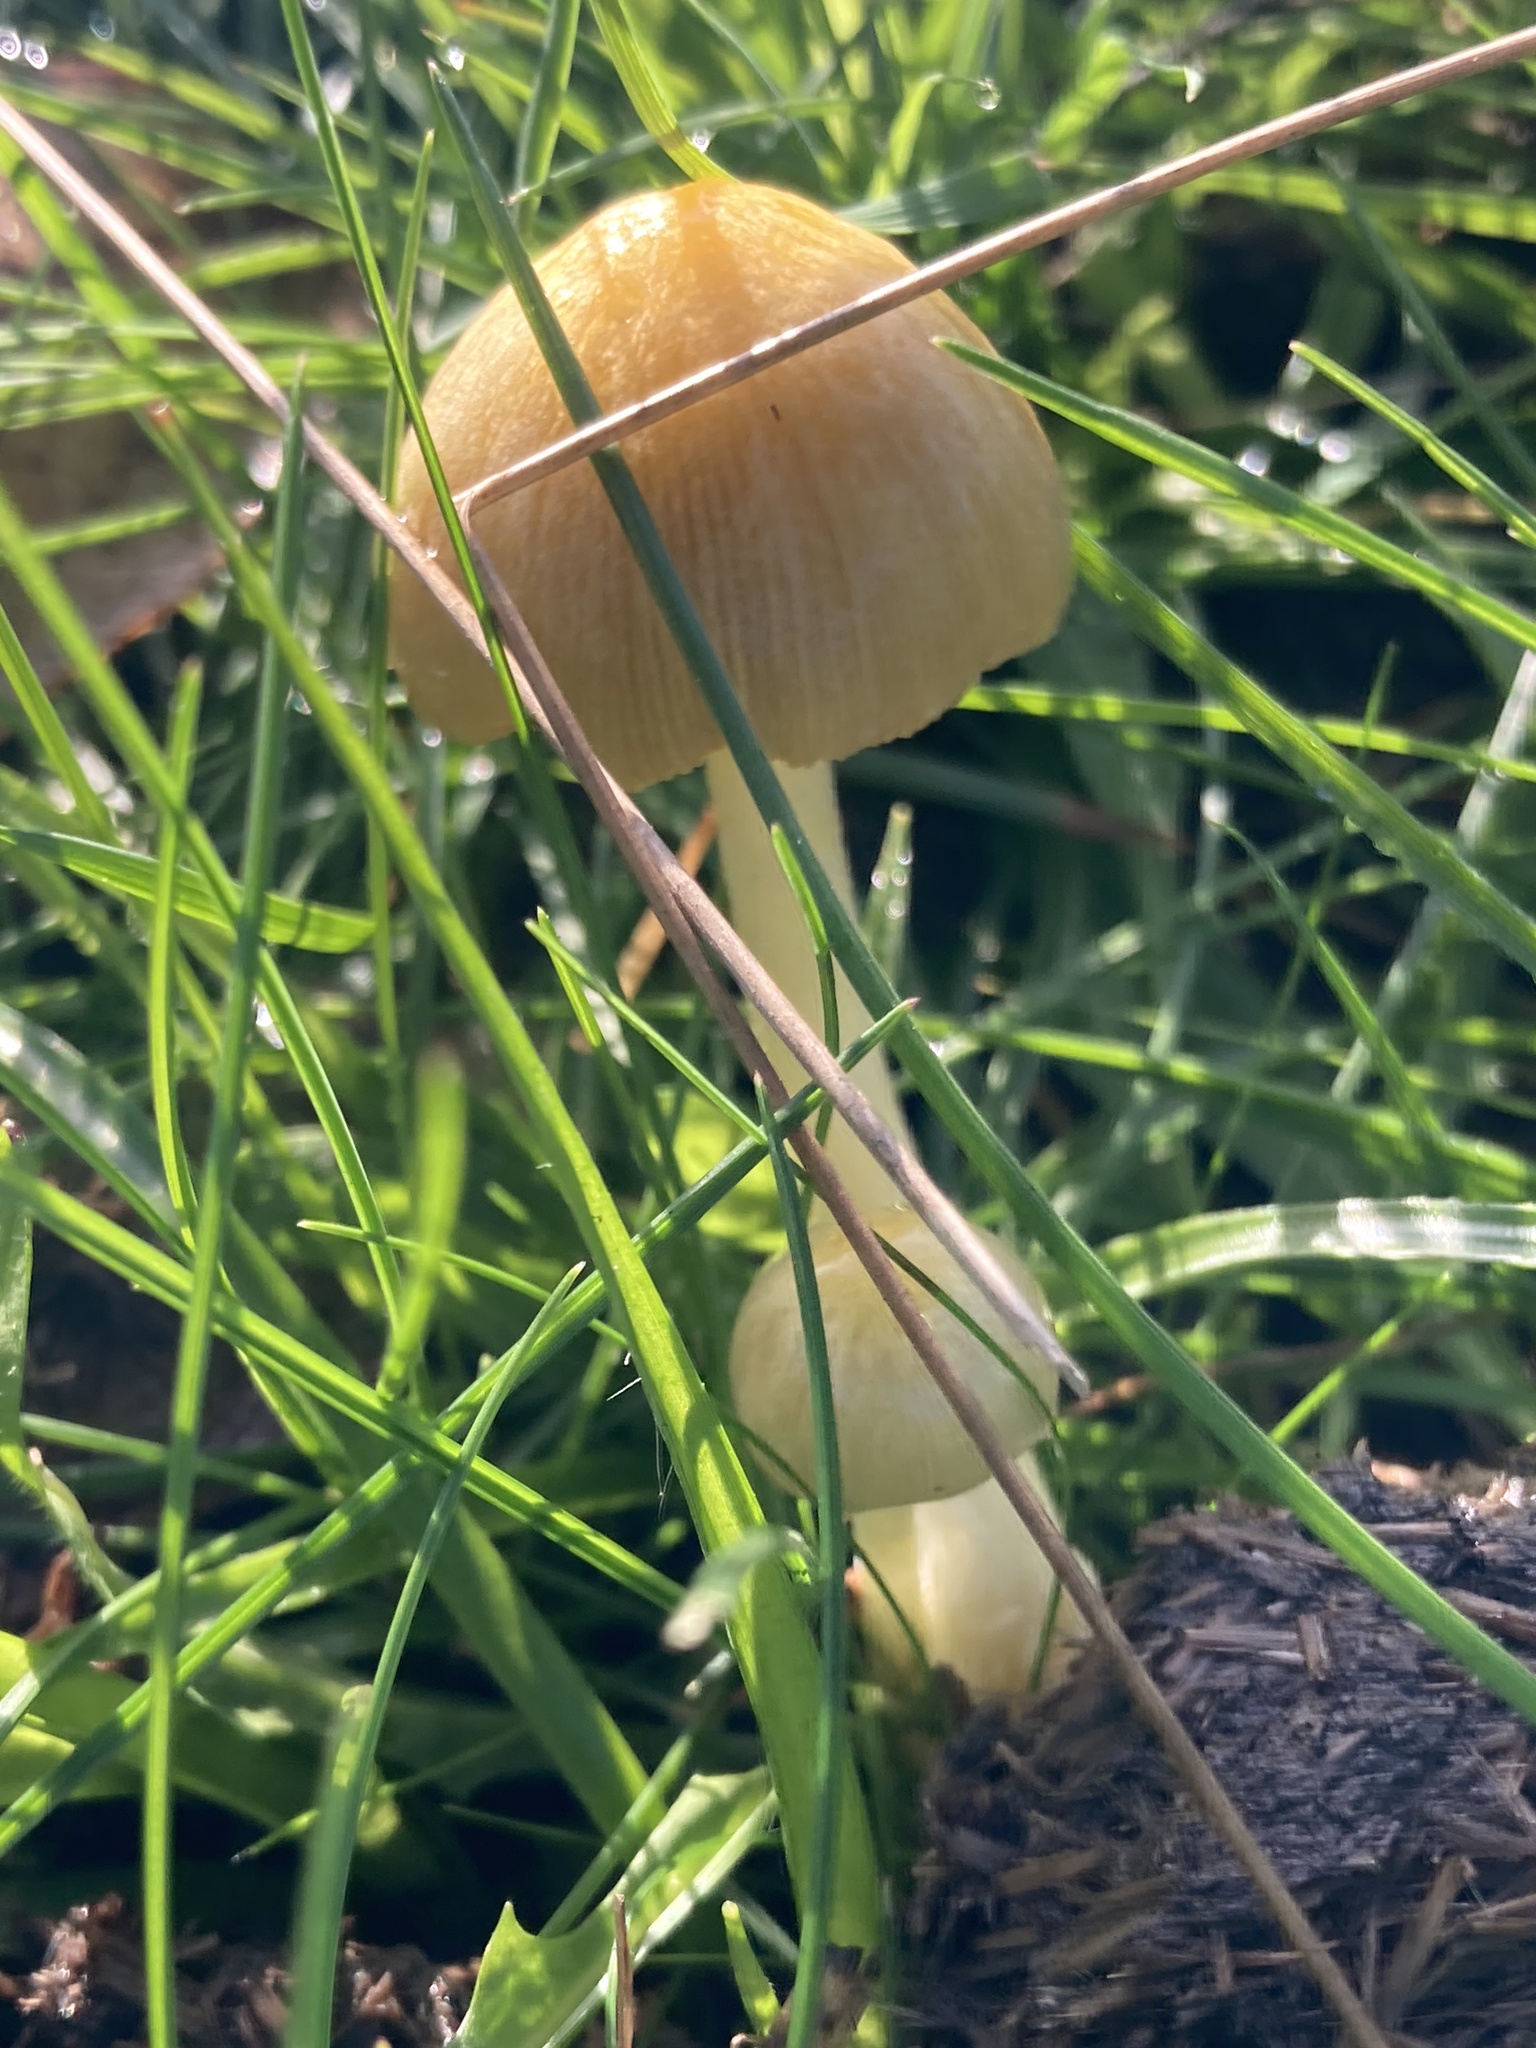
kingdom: Fungi
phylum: Basidiomycota
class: Agaricomycetes
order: Agaricales
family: Bolbitiaceae
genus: Bolbitius
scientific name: Bolbitius titubans
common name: Yellow fieldcap
